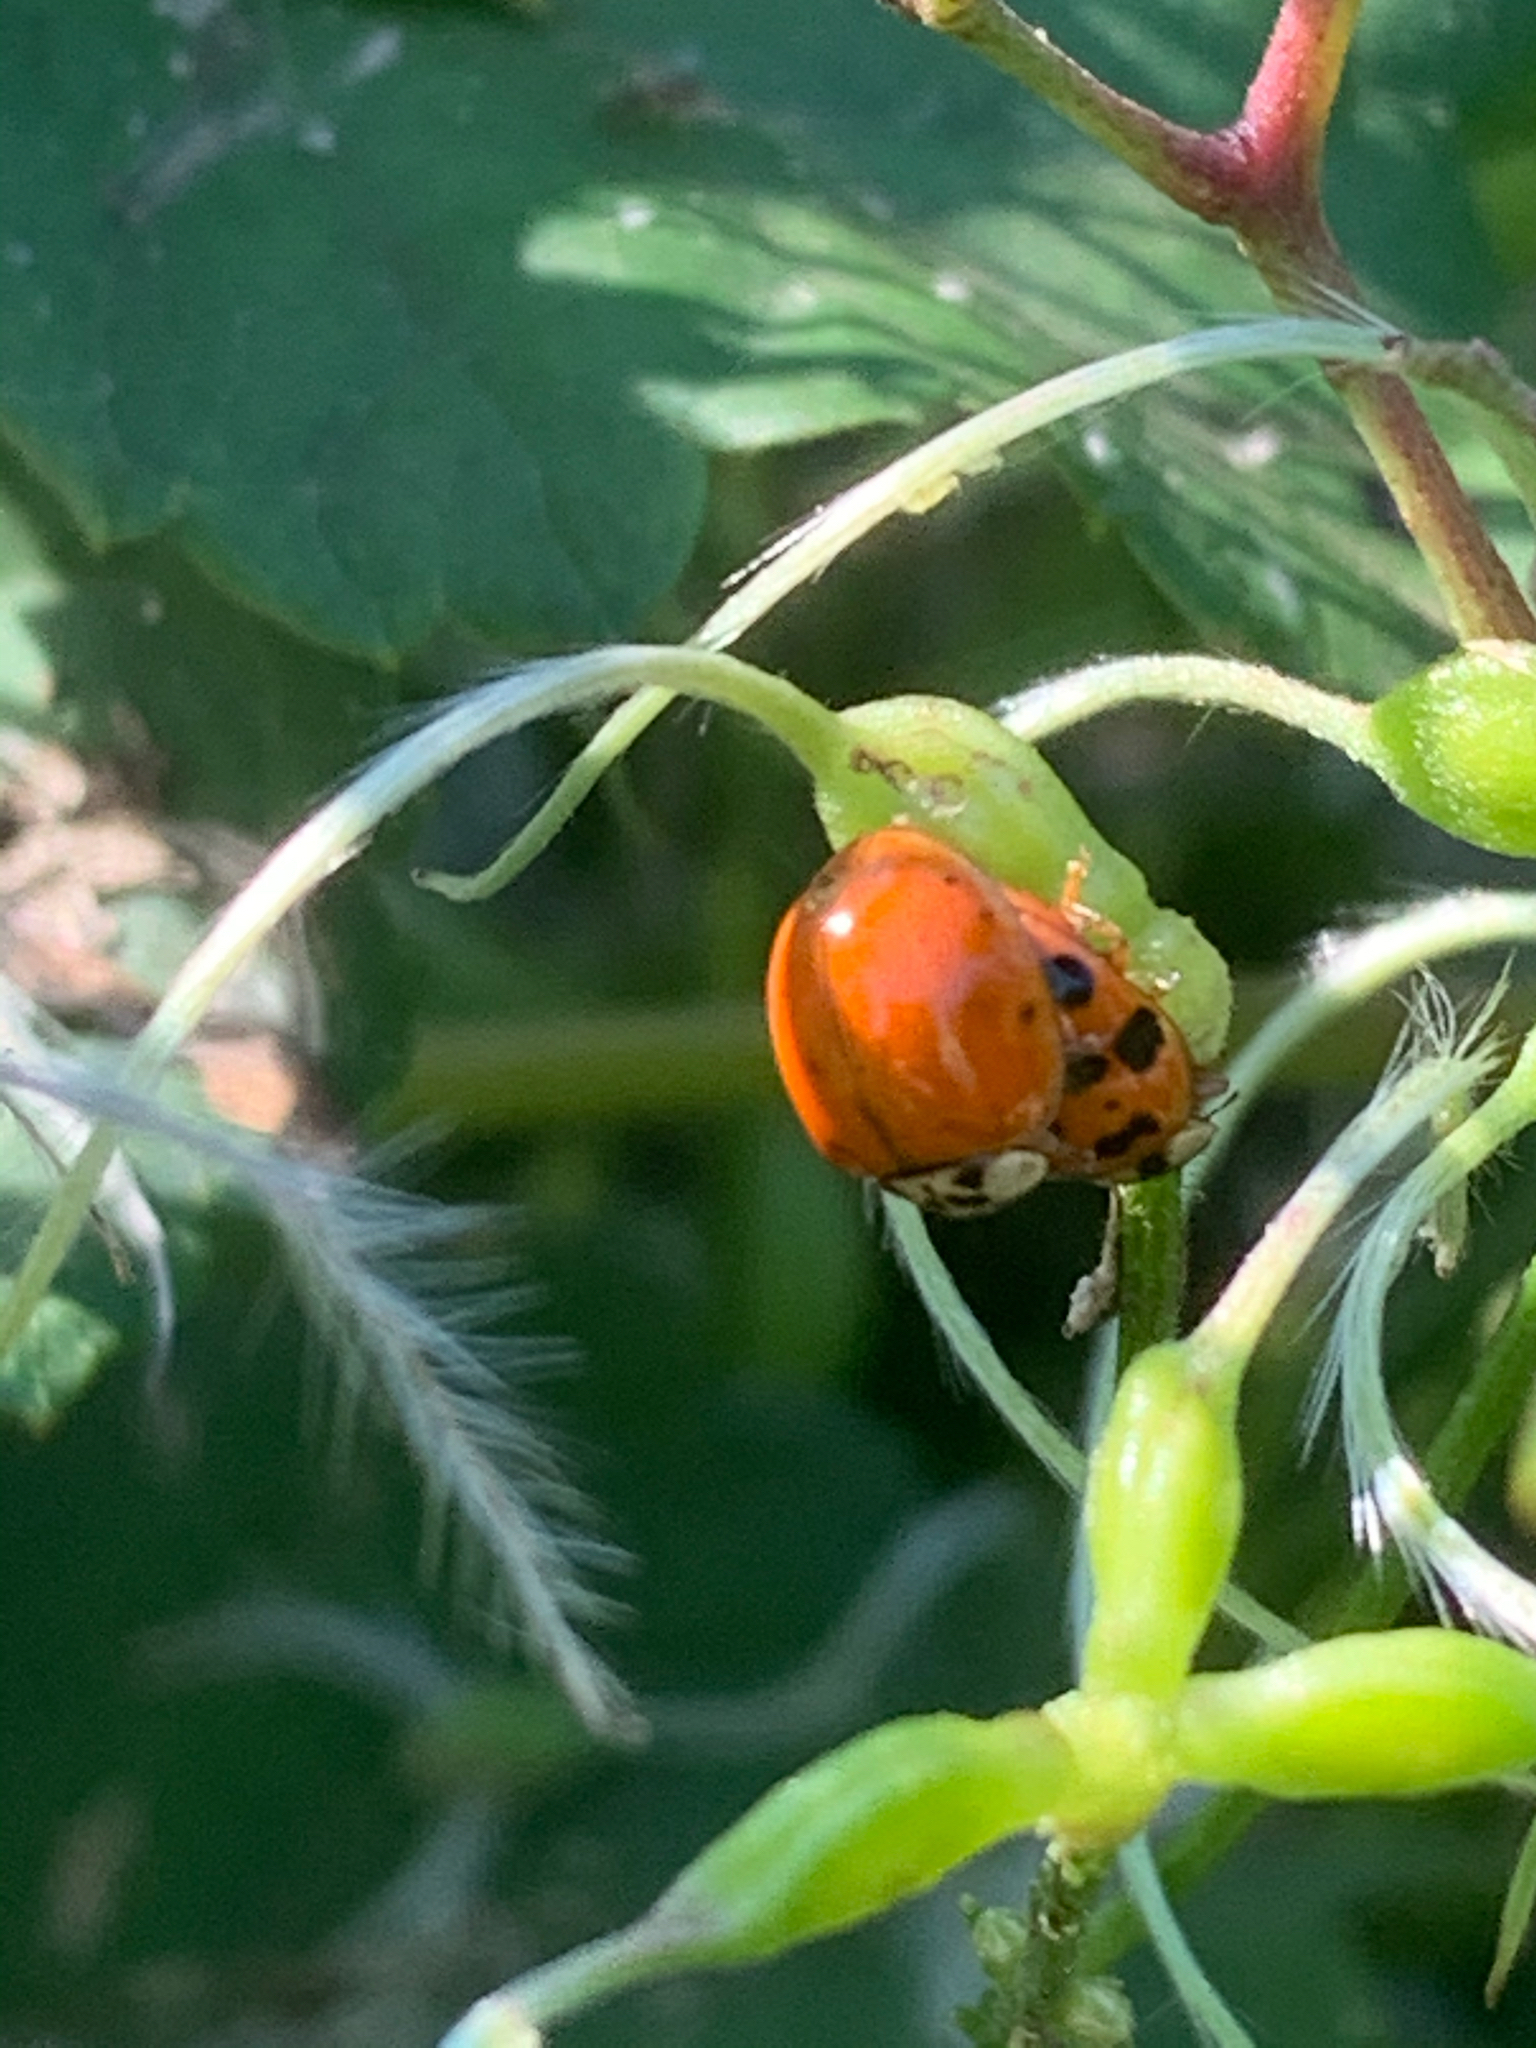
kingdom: Animalia
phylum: Arthropoda
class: Insecta
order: Coleoptera
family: Coccinellidae
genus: Harmonia
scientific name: Harmonia axyridis
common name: Harlequin ladybird
